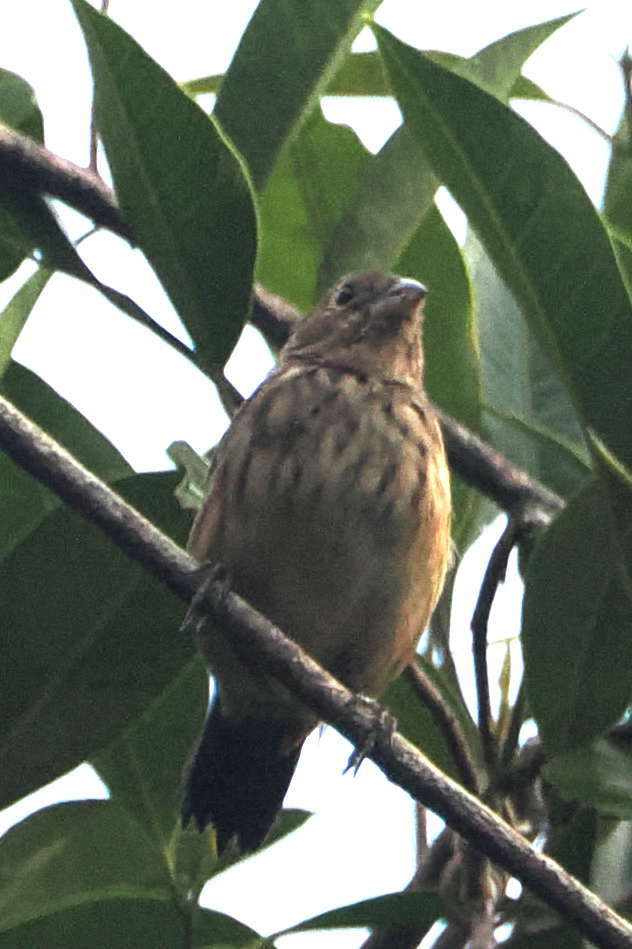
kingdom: Animalia
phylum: Chordata
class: Aves
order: Passeriformes
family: Thraupidae
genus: Volatinia
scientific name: Volatinia jacarina
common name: Blue-black grassquit
